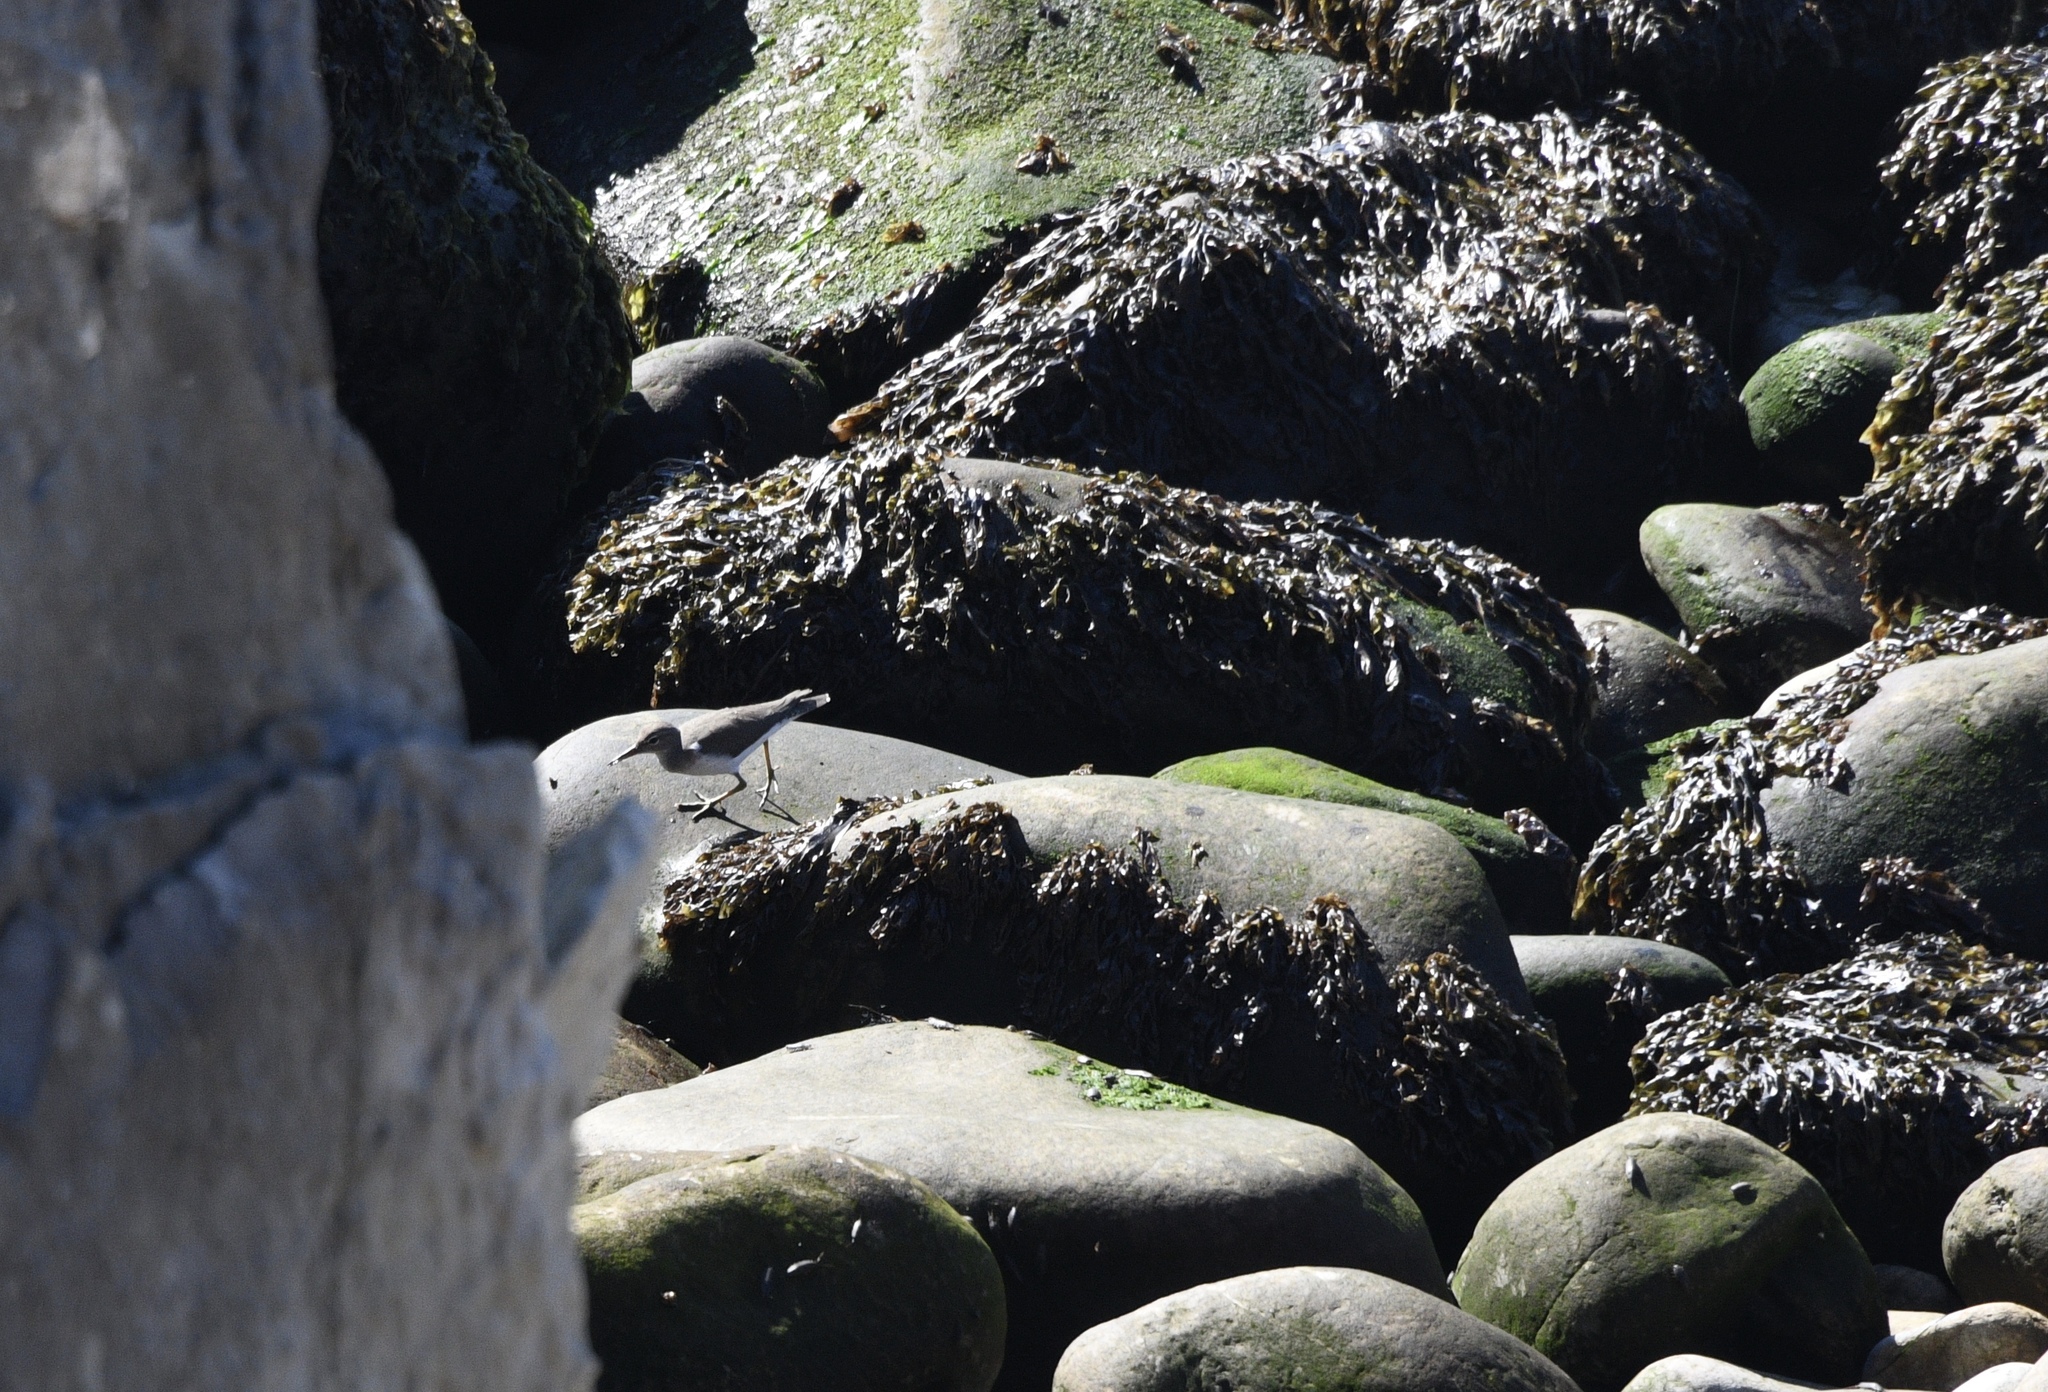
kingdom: Animalia
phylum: Chordata
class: Aves
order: Charadriiformes
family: Scolopacidae
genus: Actitis
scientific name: Actitis macularius
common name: Spotted sandpiper
